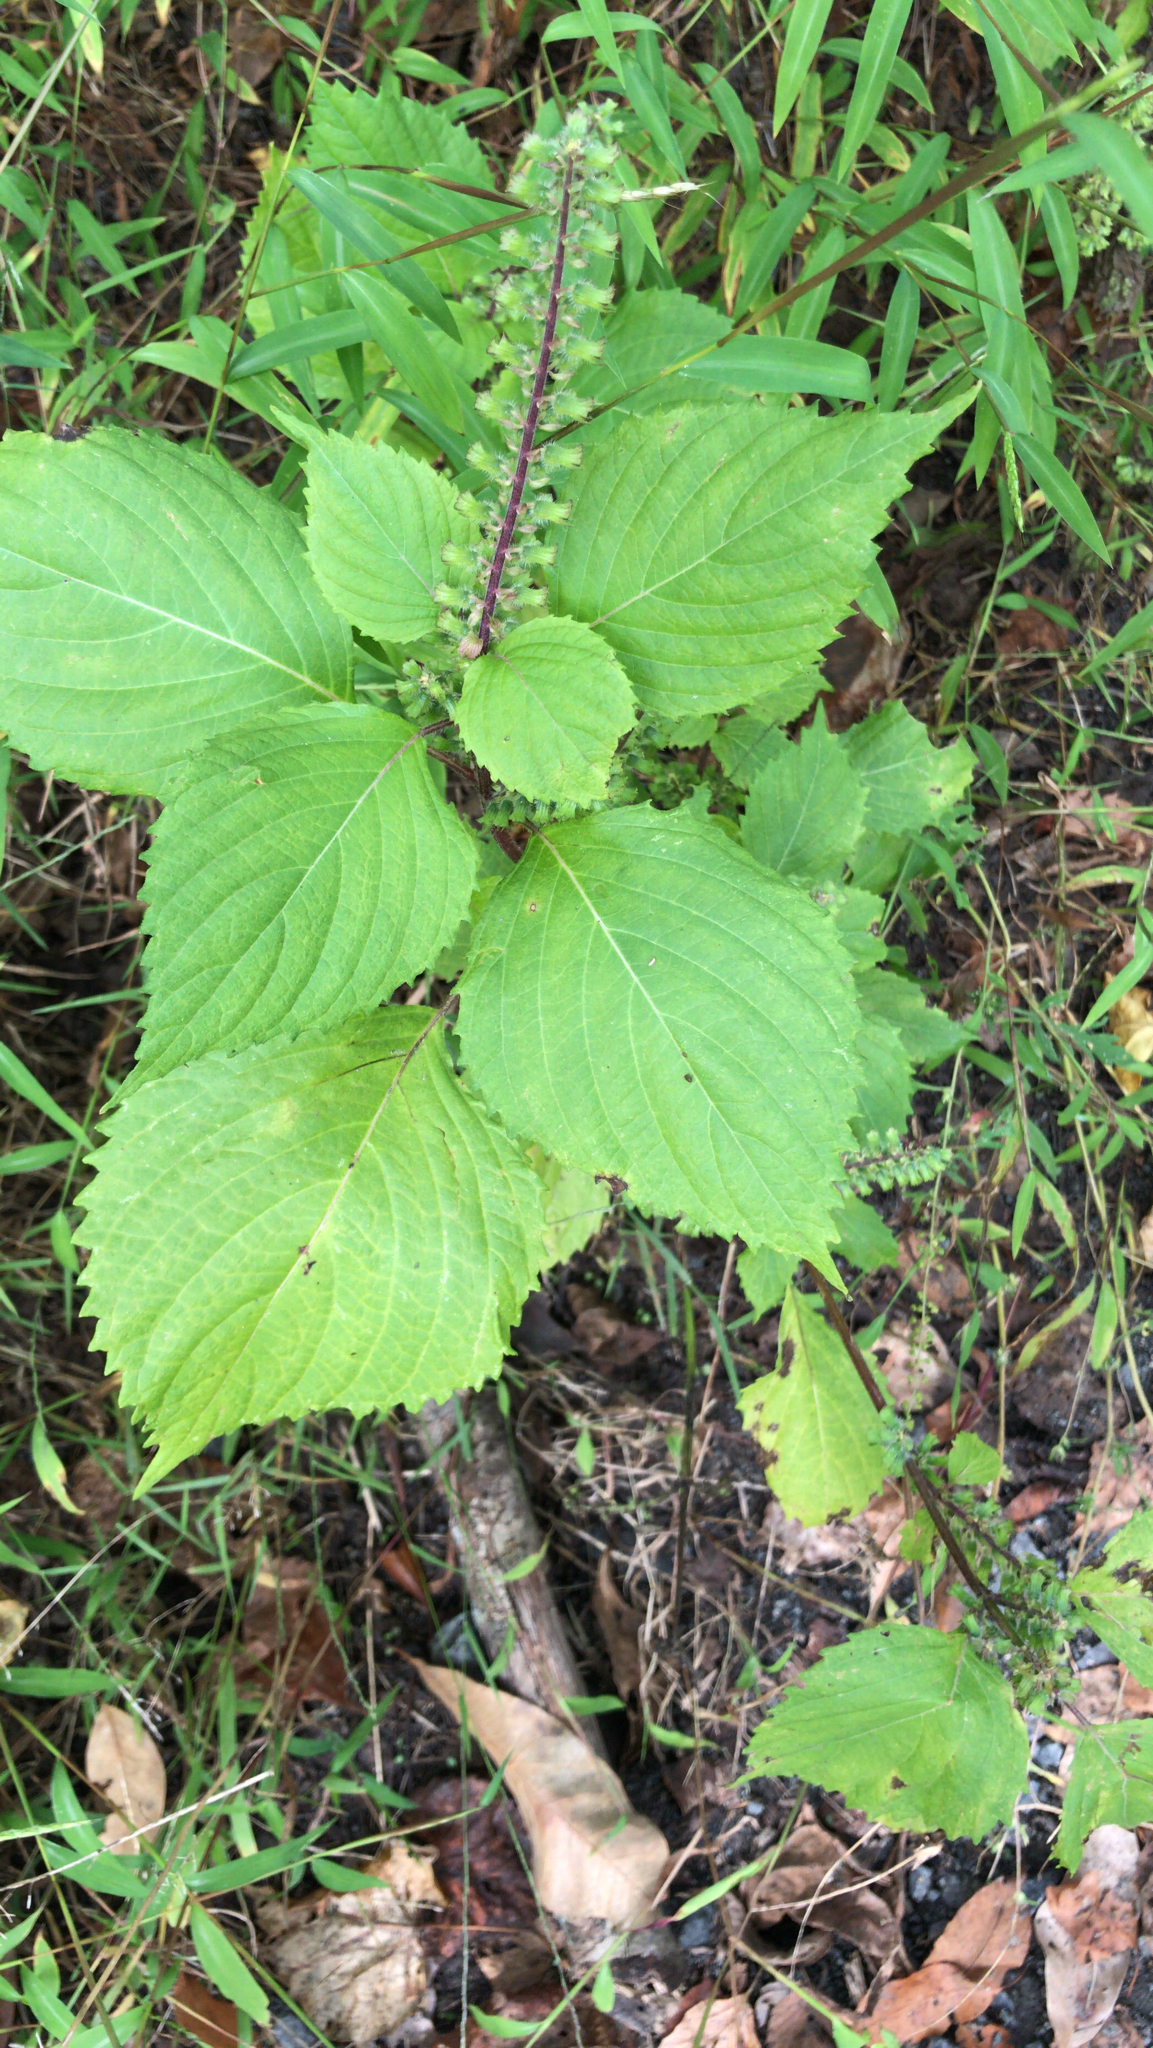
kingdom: Plantae
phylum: Tracheophyta
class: Magnoliopsida
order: Lamiales
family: Lamiaceae
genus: Perilla
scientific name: Perilla frutescens
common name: Perilla
